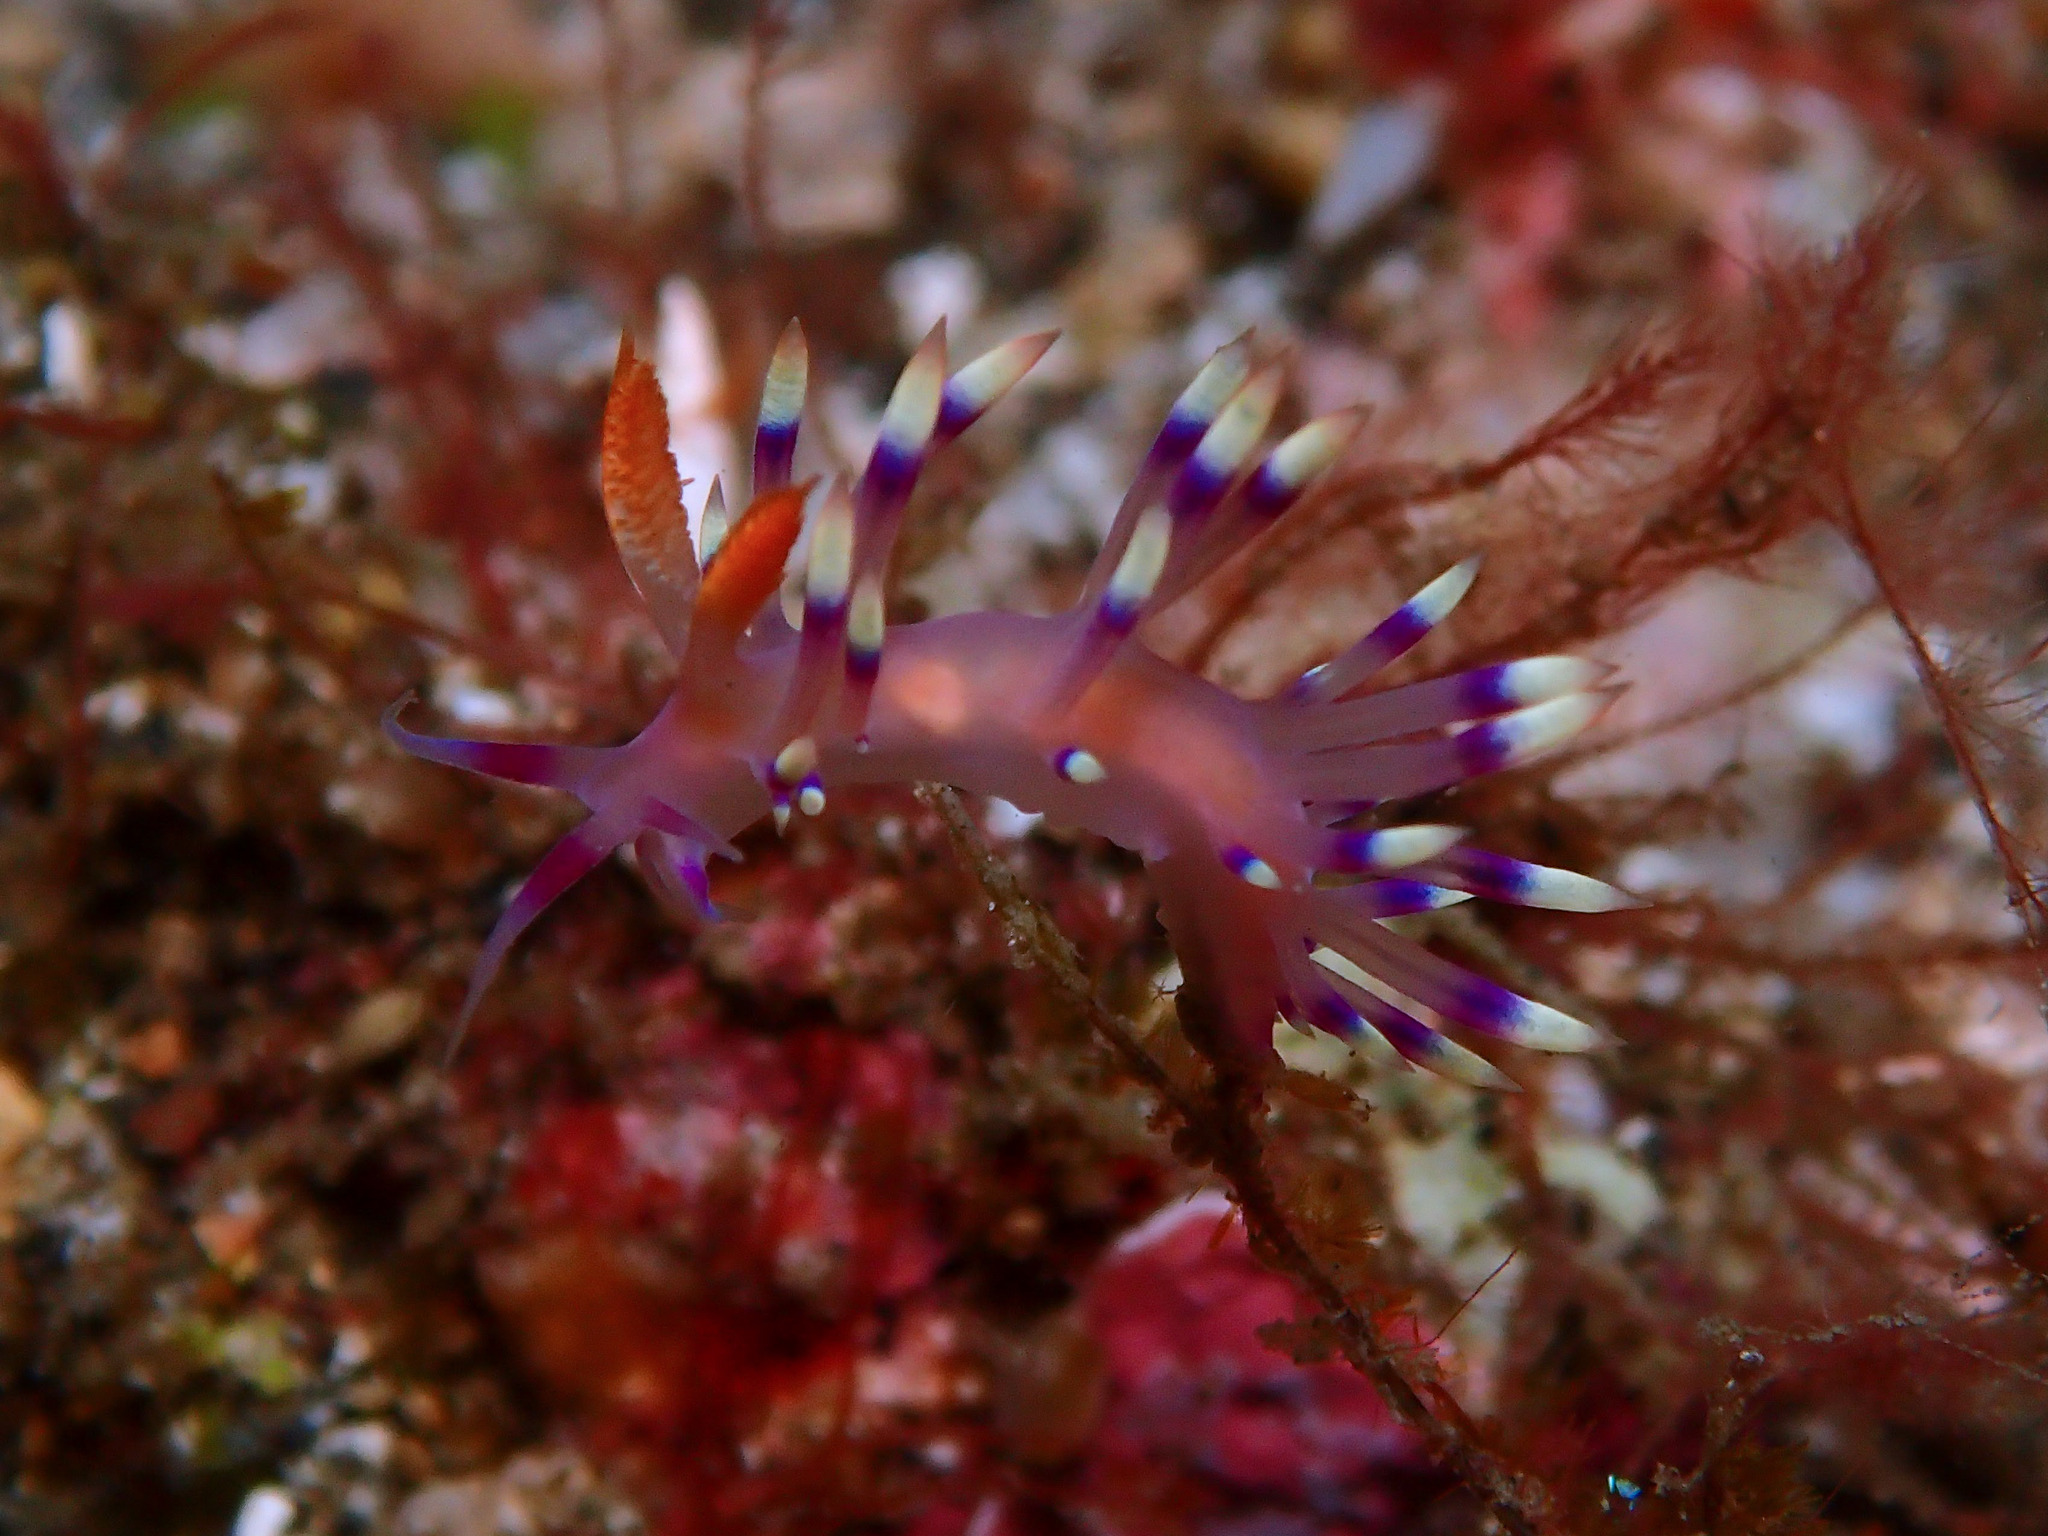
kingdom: Animalia
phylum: Mollusca
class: Gastropoda
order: Nudibranchia
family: Flabellinidae
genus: Coryphellina
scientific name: Coryphellina exoptata
